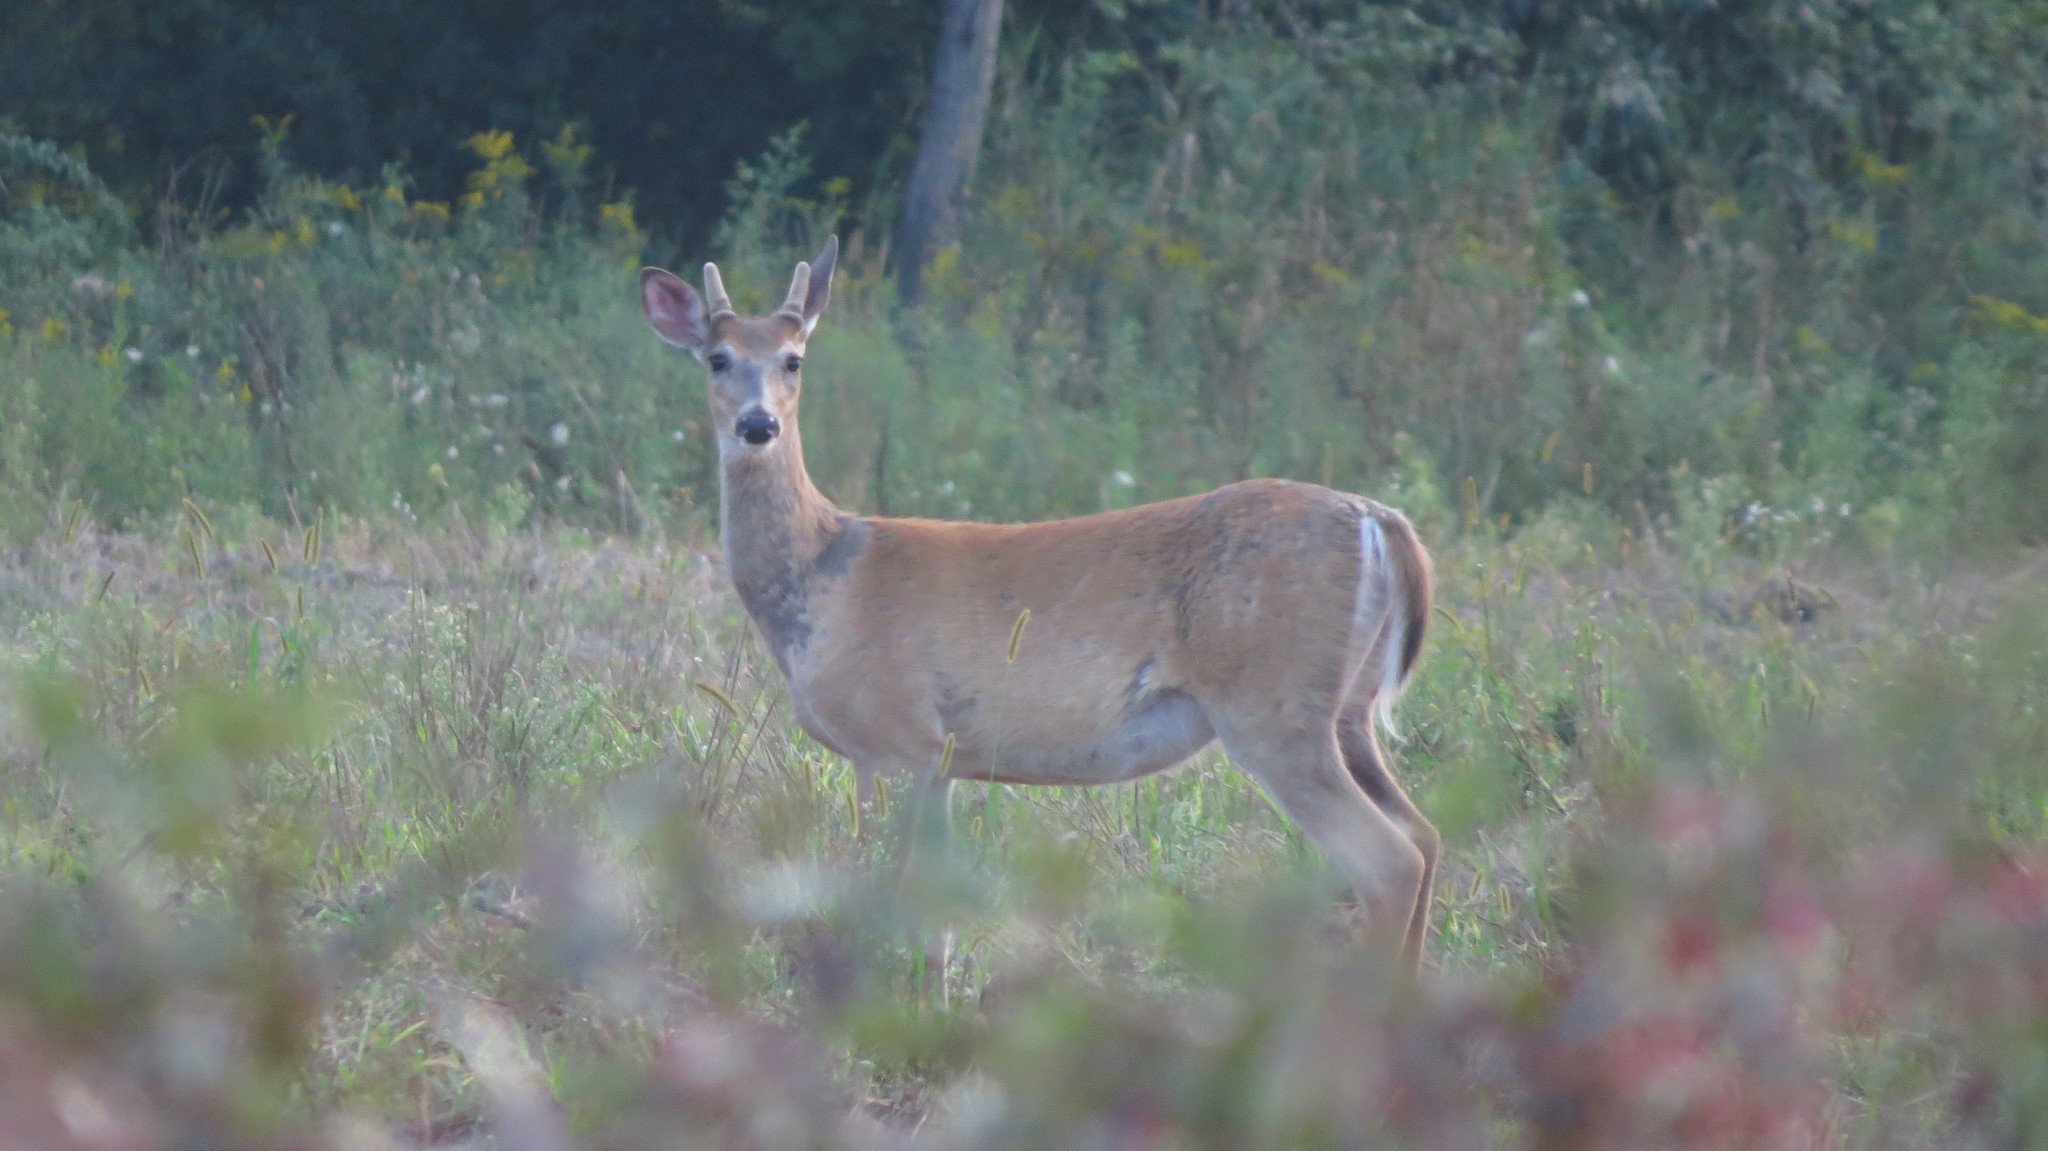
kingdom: Animalia
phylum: Chordata
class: Mammalia
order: Artiodactyla
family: Cervidae
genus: Odocoileus
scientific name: Odocoileus virginianus
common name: White-tailed deer
